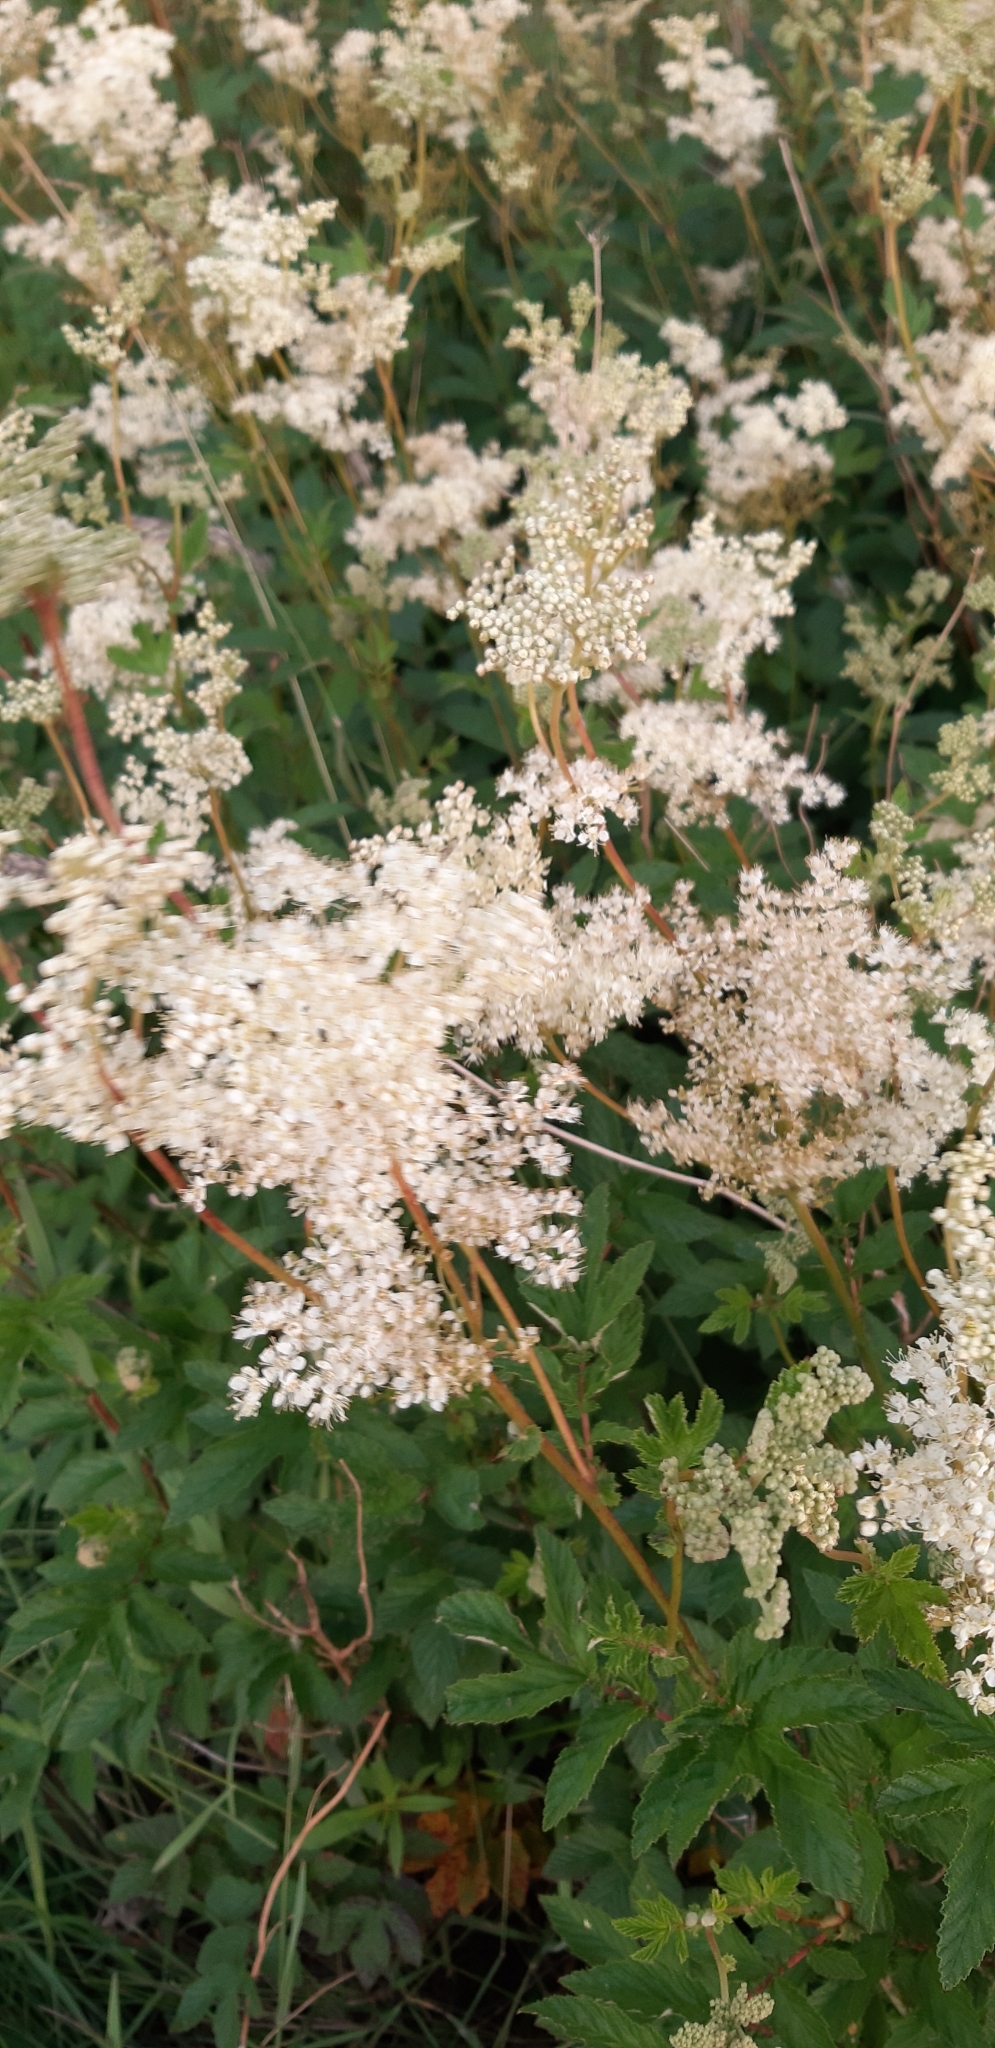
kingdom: Plantae
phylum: Tracheophyta
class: Magnoliopsida
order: Rosales
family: Rosaceae
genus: Filipendula
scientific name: Filipendula ulmaria
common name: Meadowsweet
